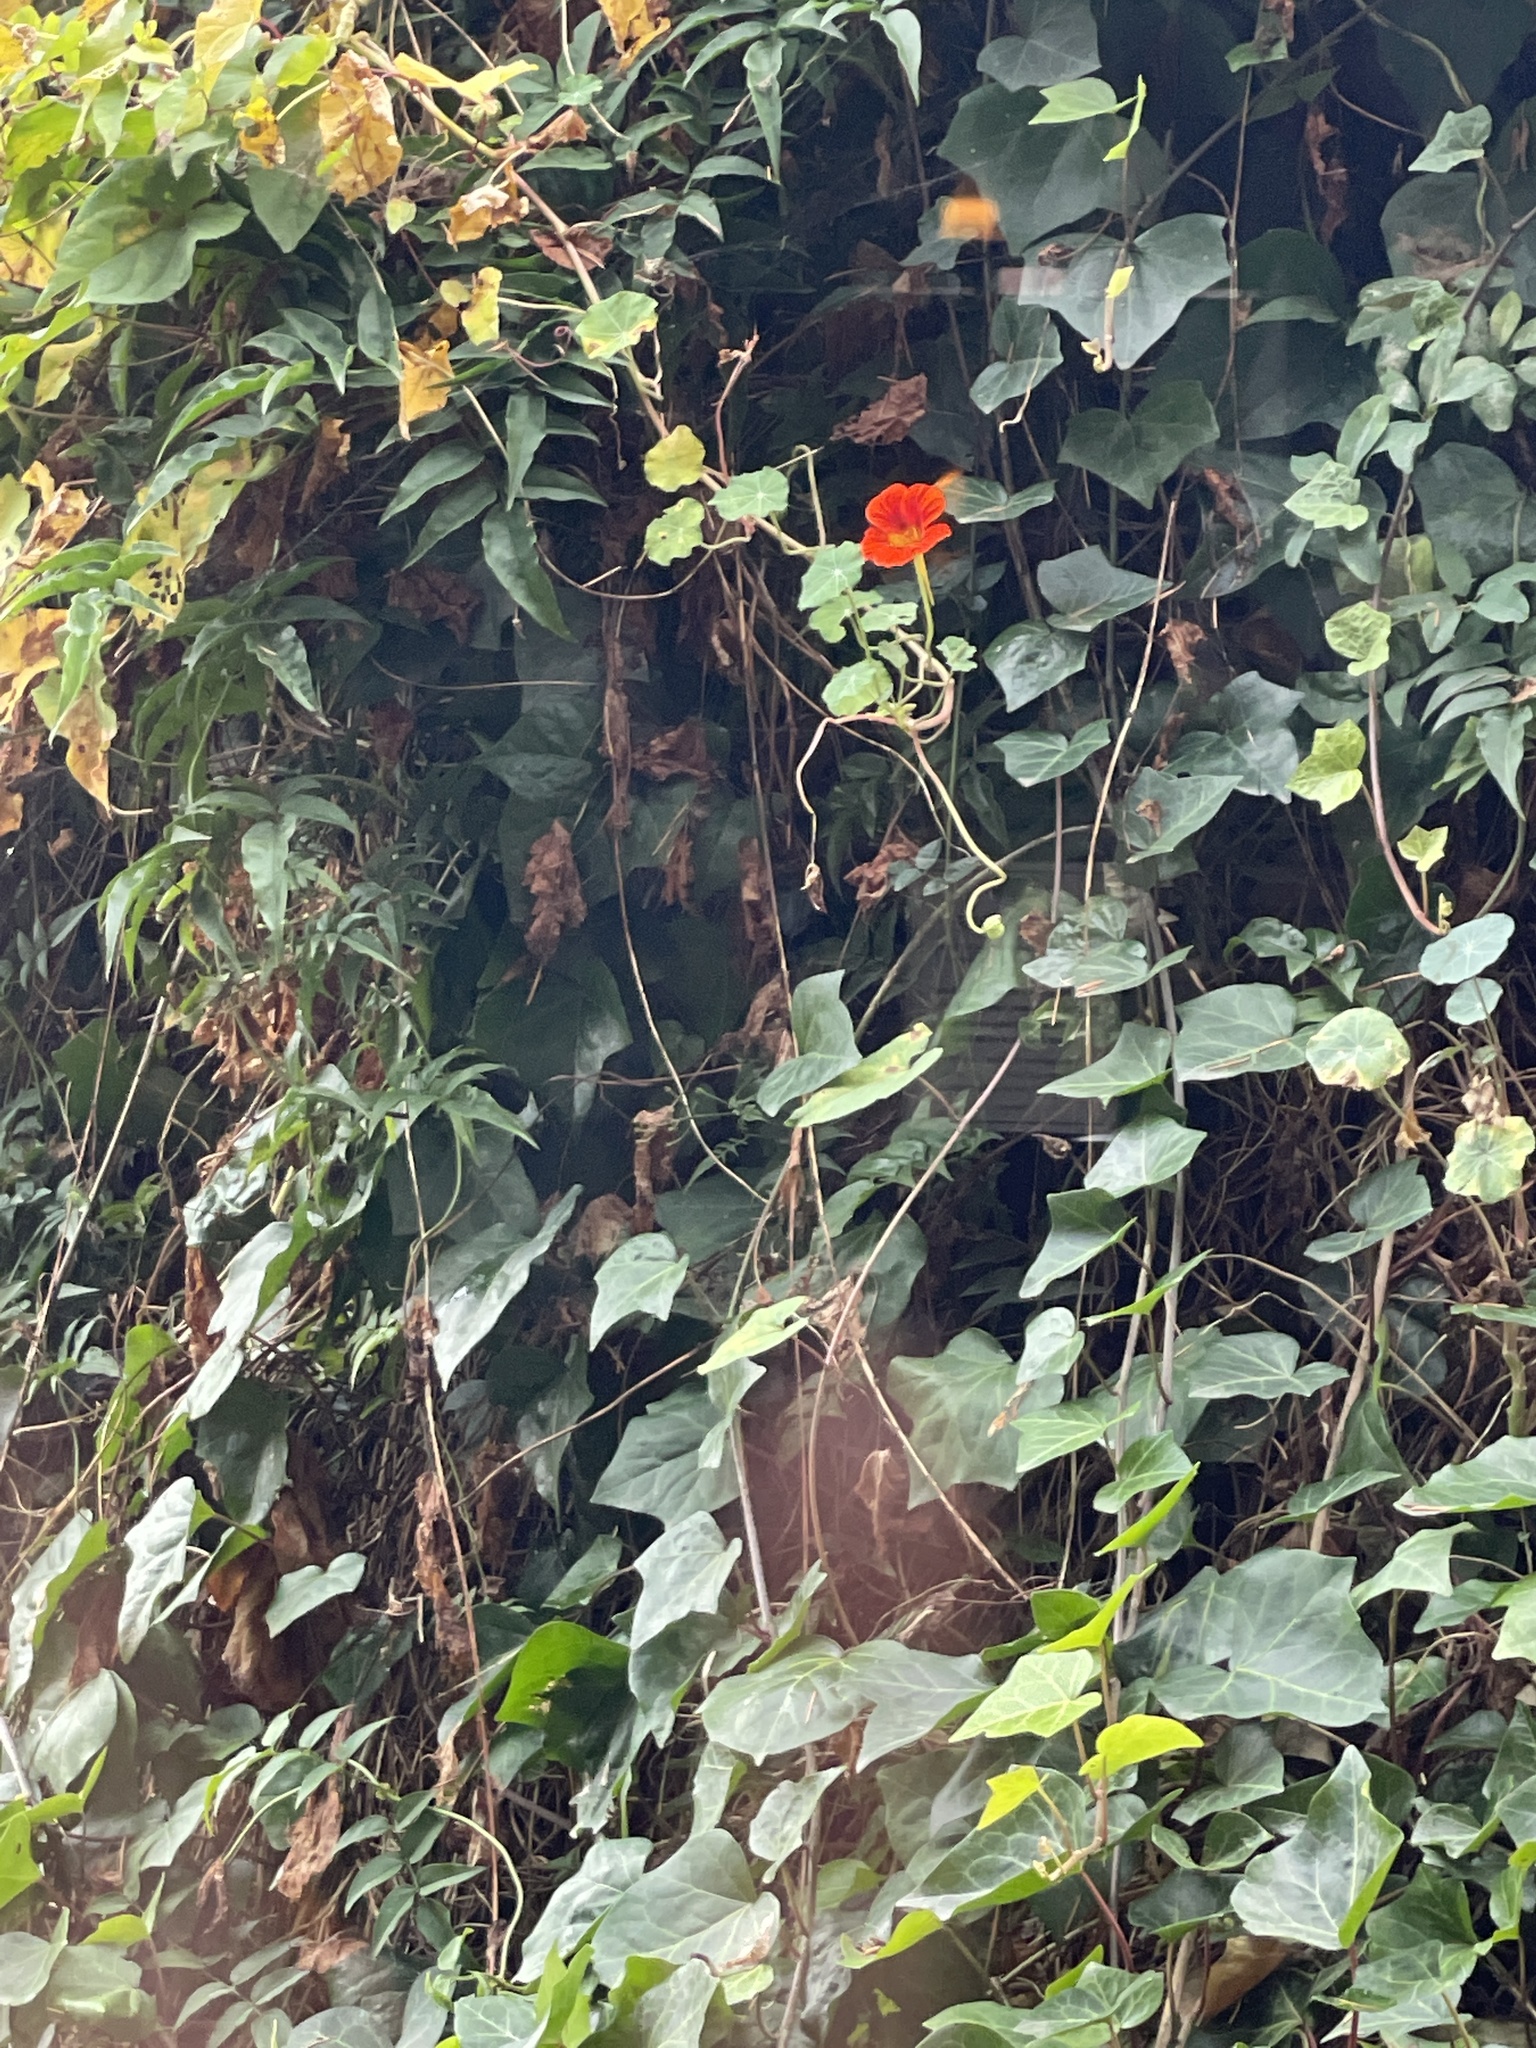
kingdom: Plantae
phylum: Tracheophyta
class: Magnoliopsida
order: Brassicales
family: Tropaeolaceae
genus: Tropaeolum
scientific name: Tropaeolum majus
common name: Nasturtium
